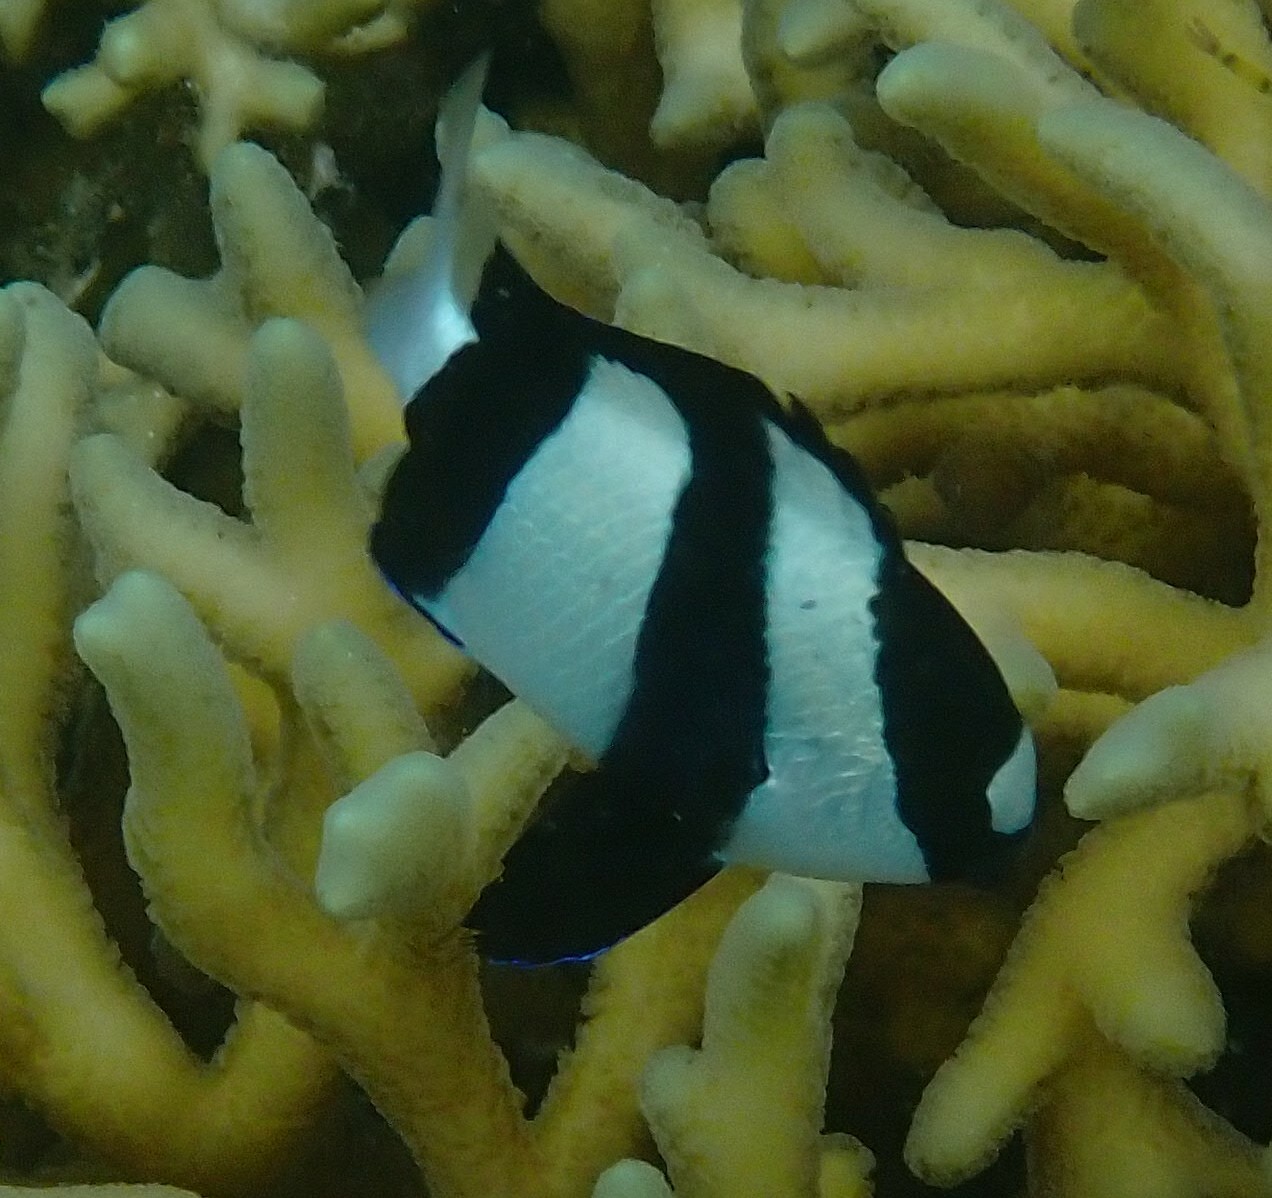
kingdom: Animalia
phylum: Chordata
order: Perciformes
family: Pomacentridae
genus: Dascyllus
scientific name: Dascyllus aruanus
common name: Humbug dascyllus
